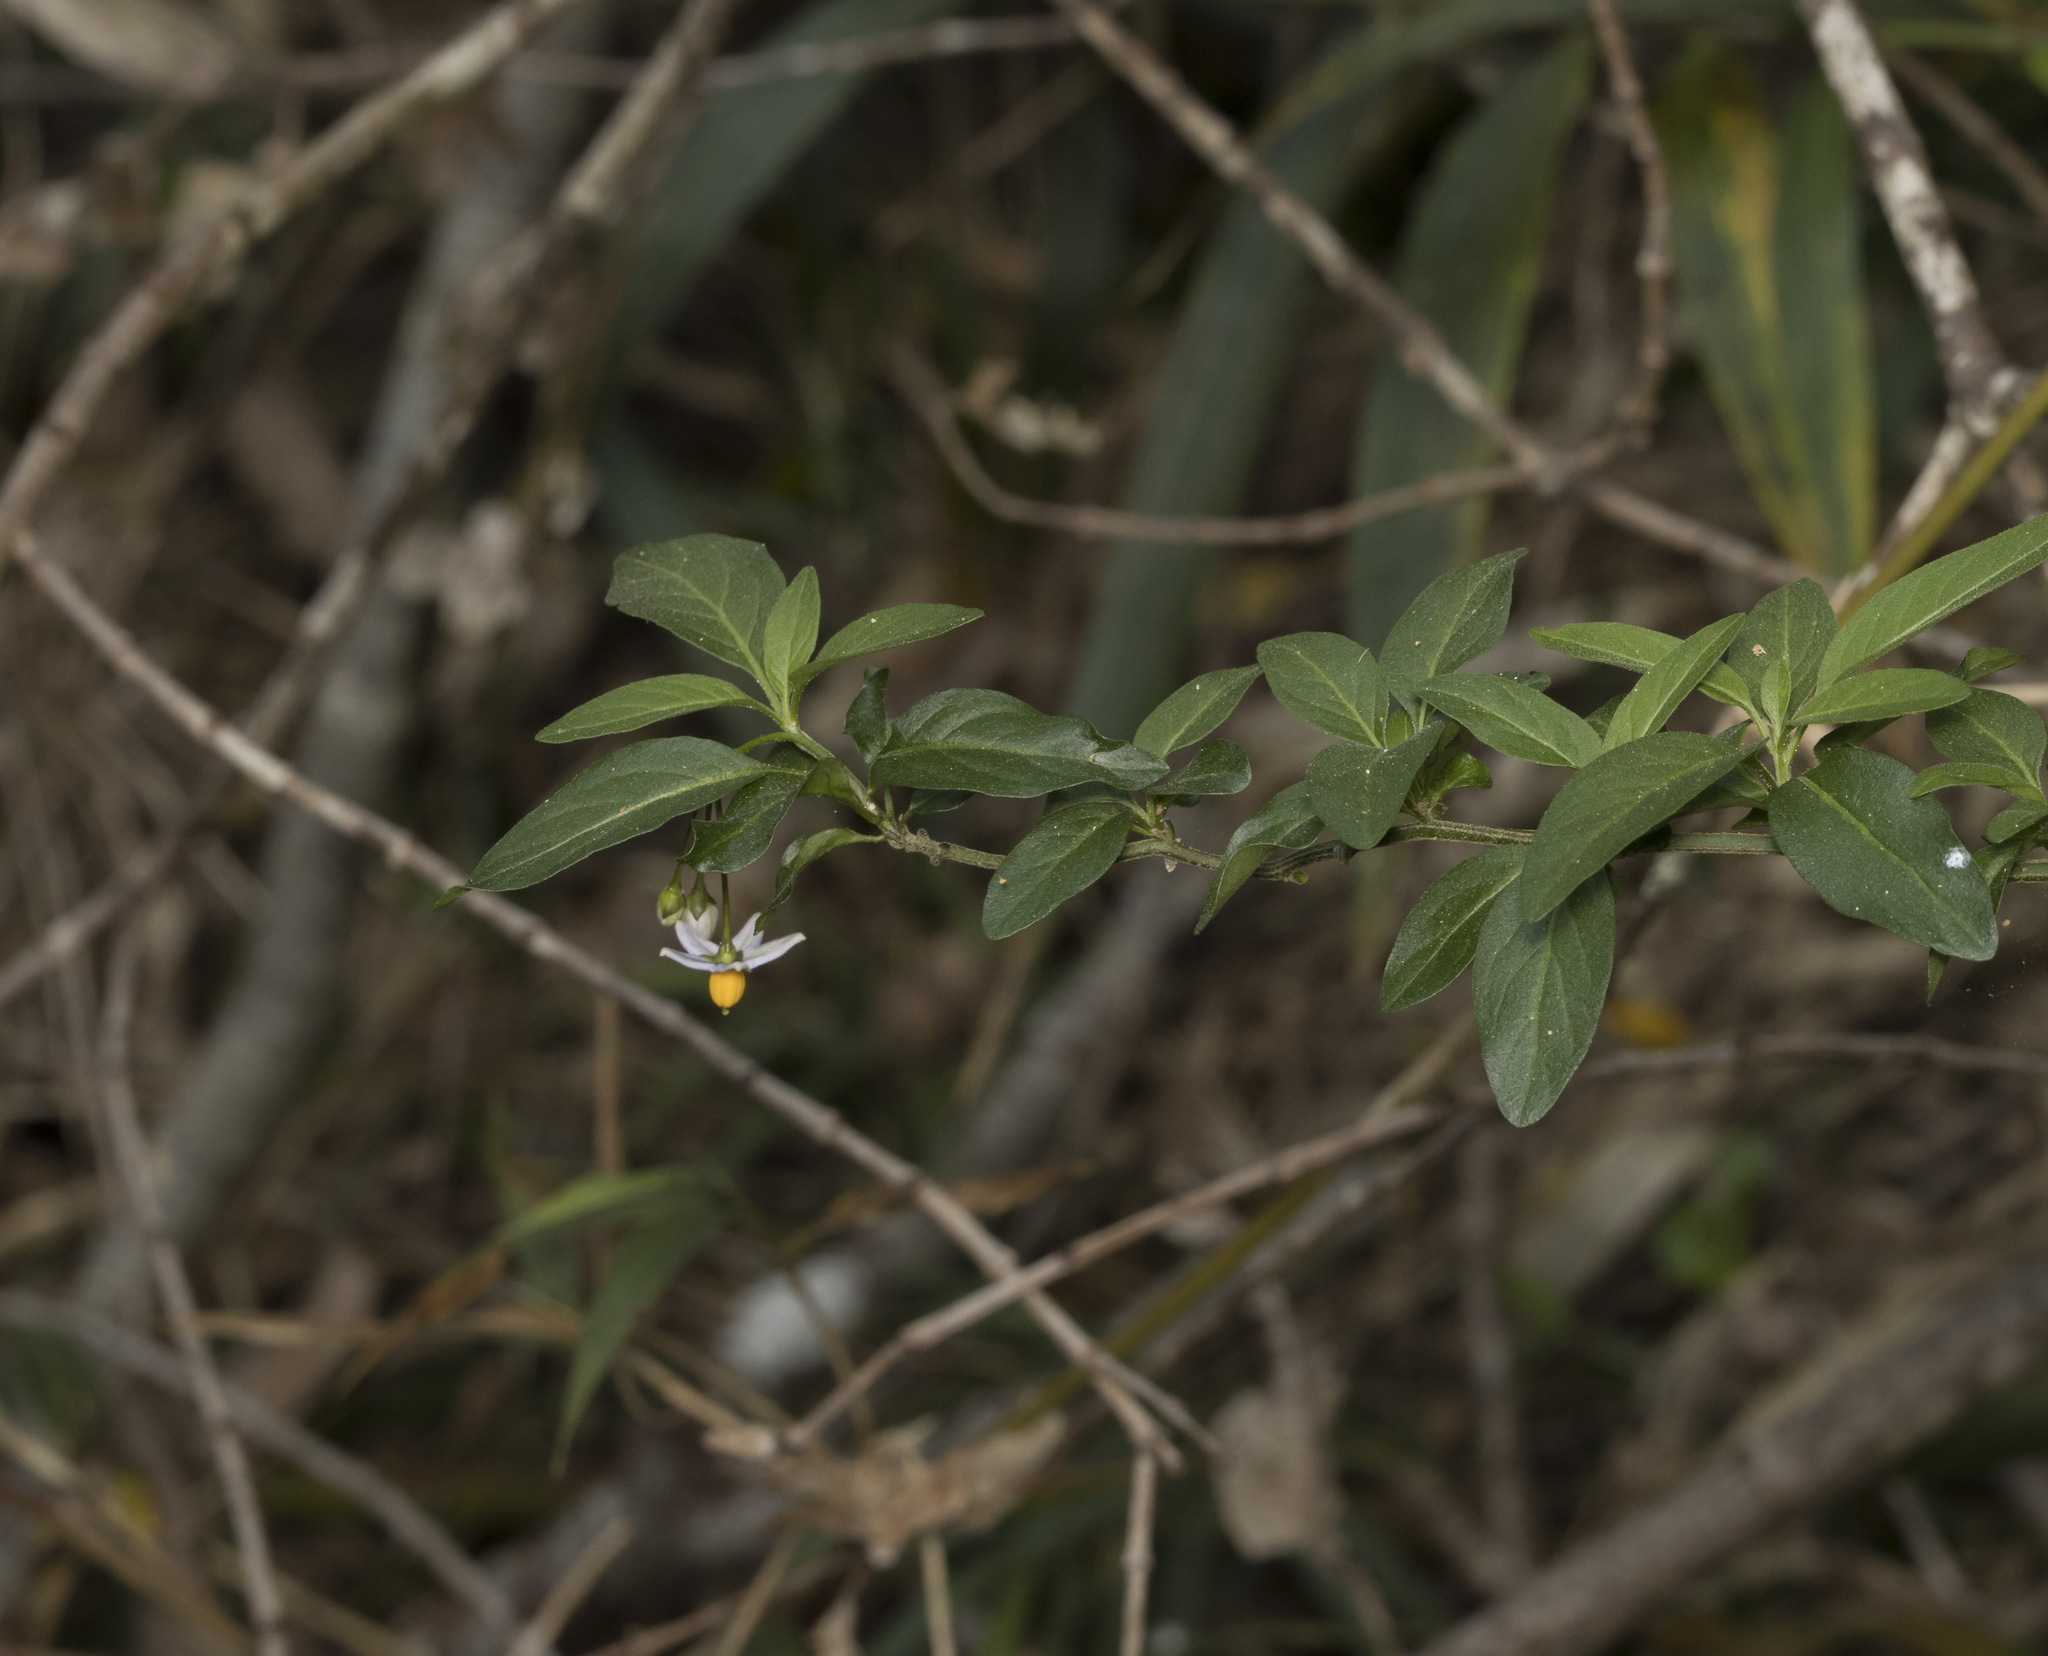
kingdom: Plantae
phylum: Tracheophyta
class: Magnoliopsida
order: Solanales
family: Solanaceae
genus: Solanum
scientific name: Solanum valdiviense
